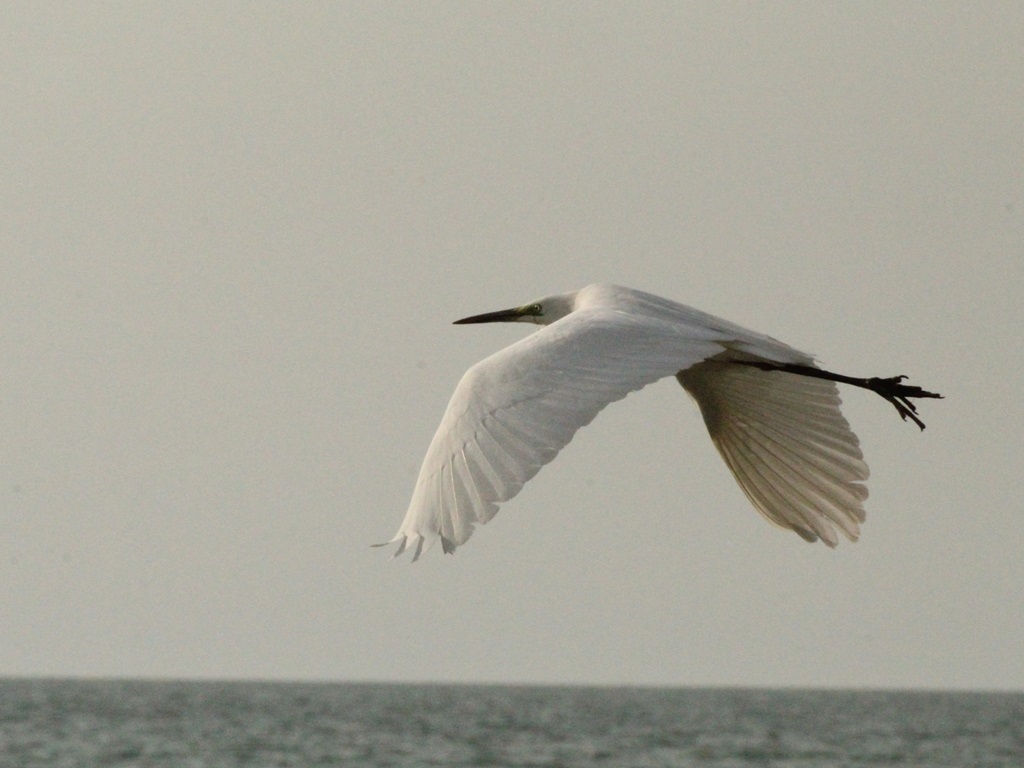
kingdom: Animalia
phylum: Chordata
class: Aves
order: Pelecaniformes
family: Ardeidae
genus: Ardea
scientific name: Ardea alba
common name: Great egret
